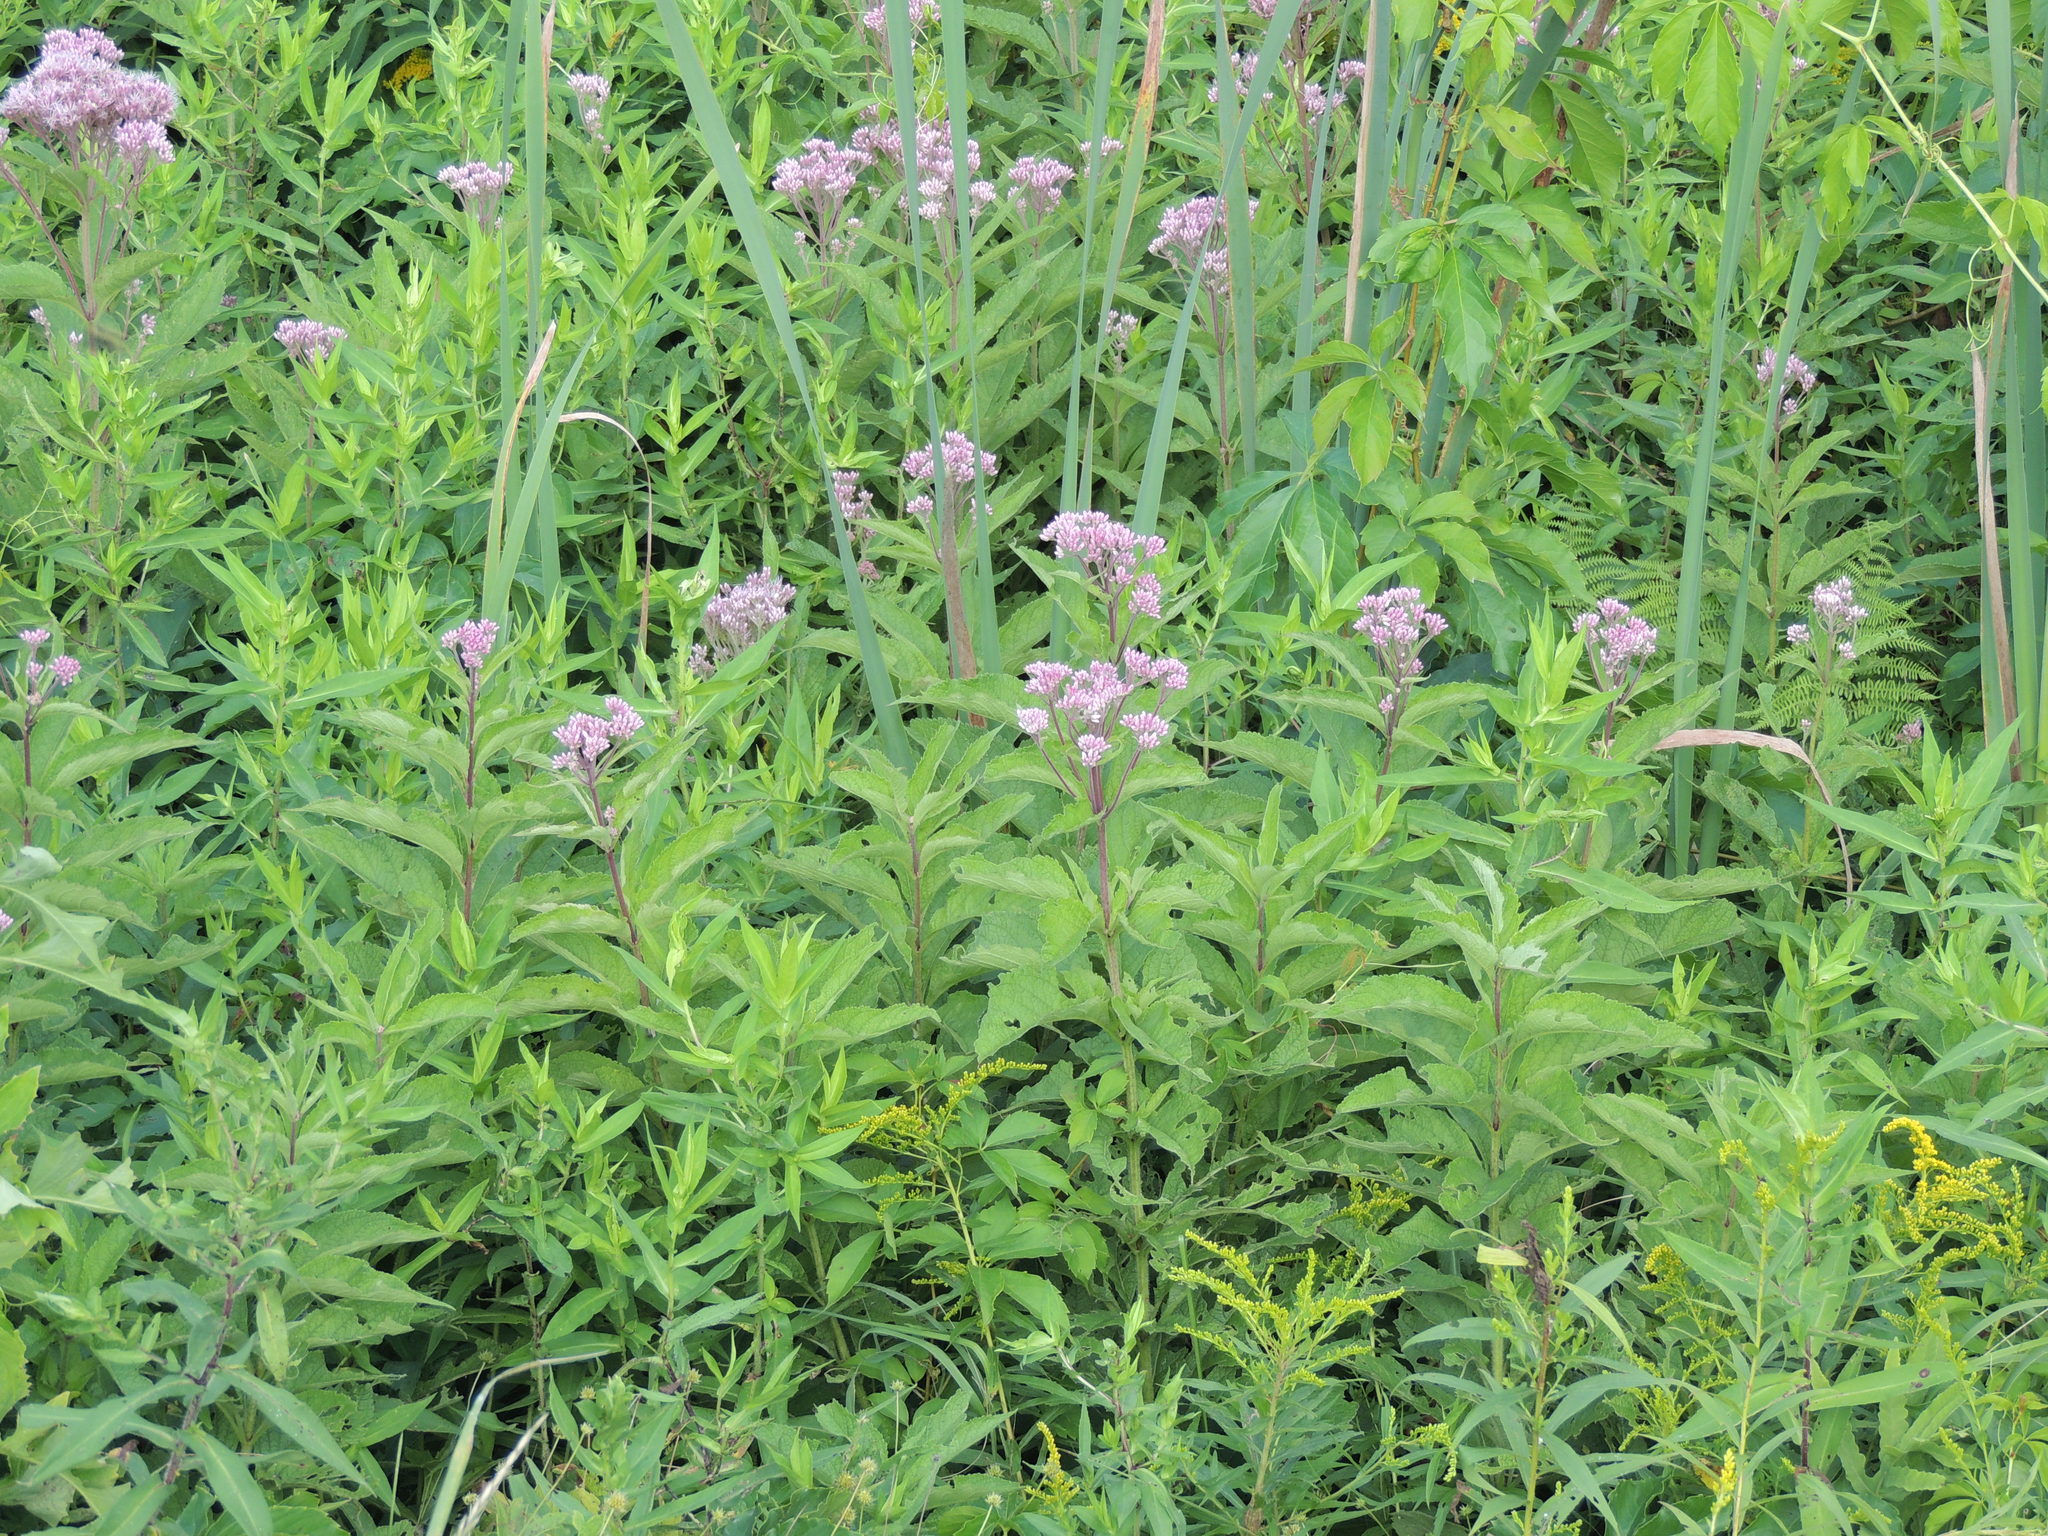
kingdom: Plantae
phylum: Tracheophyta
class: Magnoliopsida
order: Asterales
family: Asteraceae
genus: Eutrochium
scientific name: Eutrochium maculatum
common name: Spotted joe pye weed
